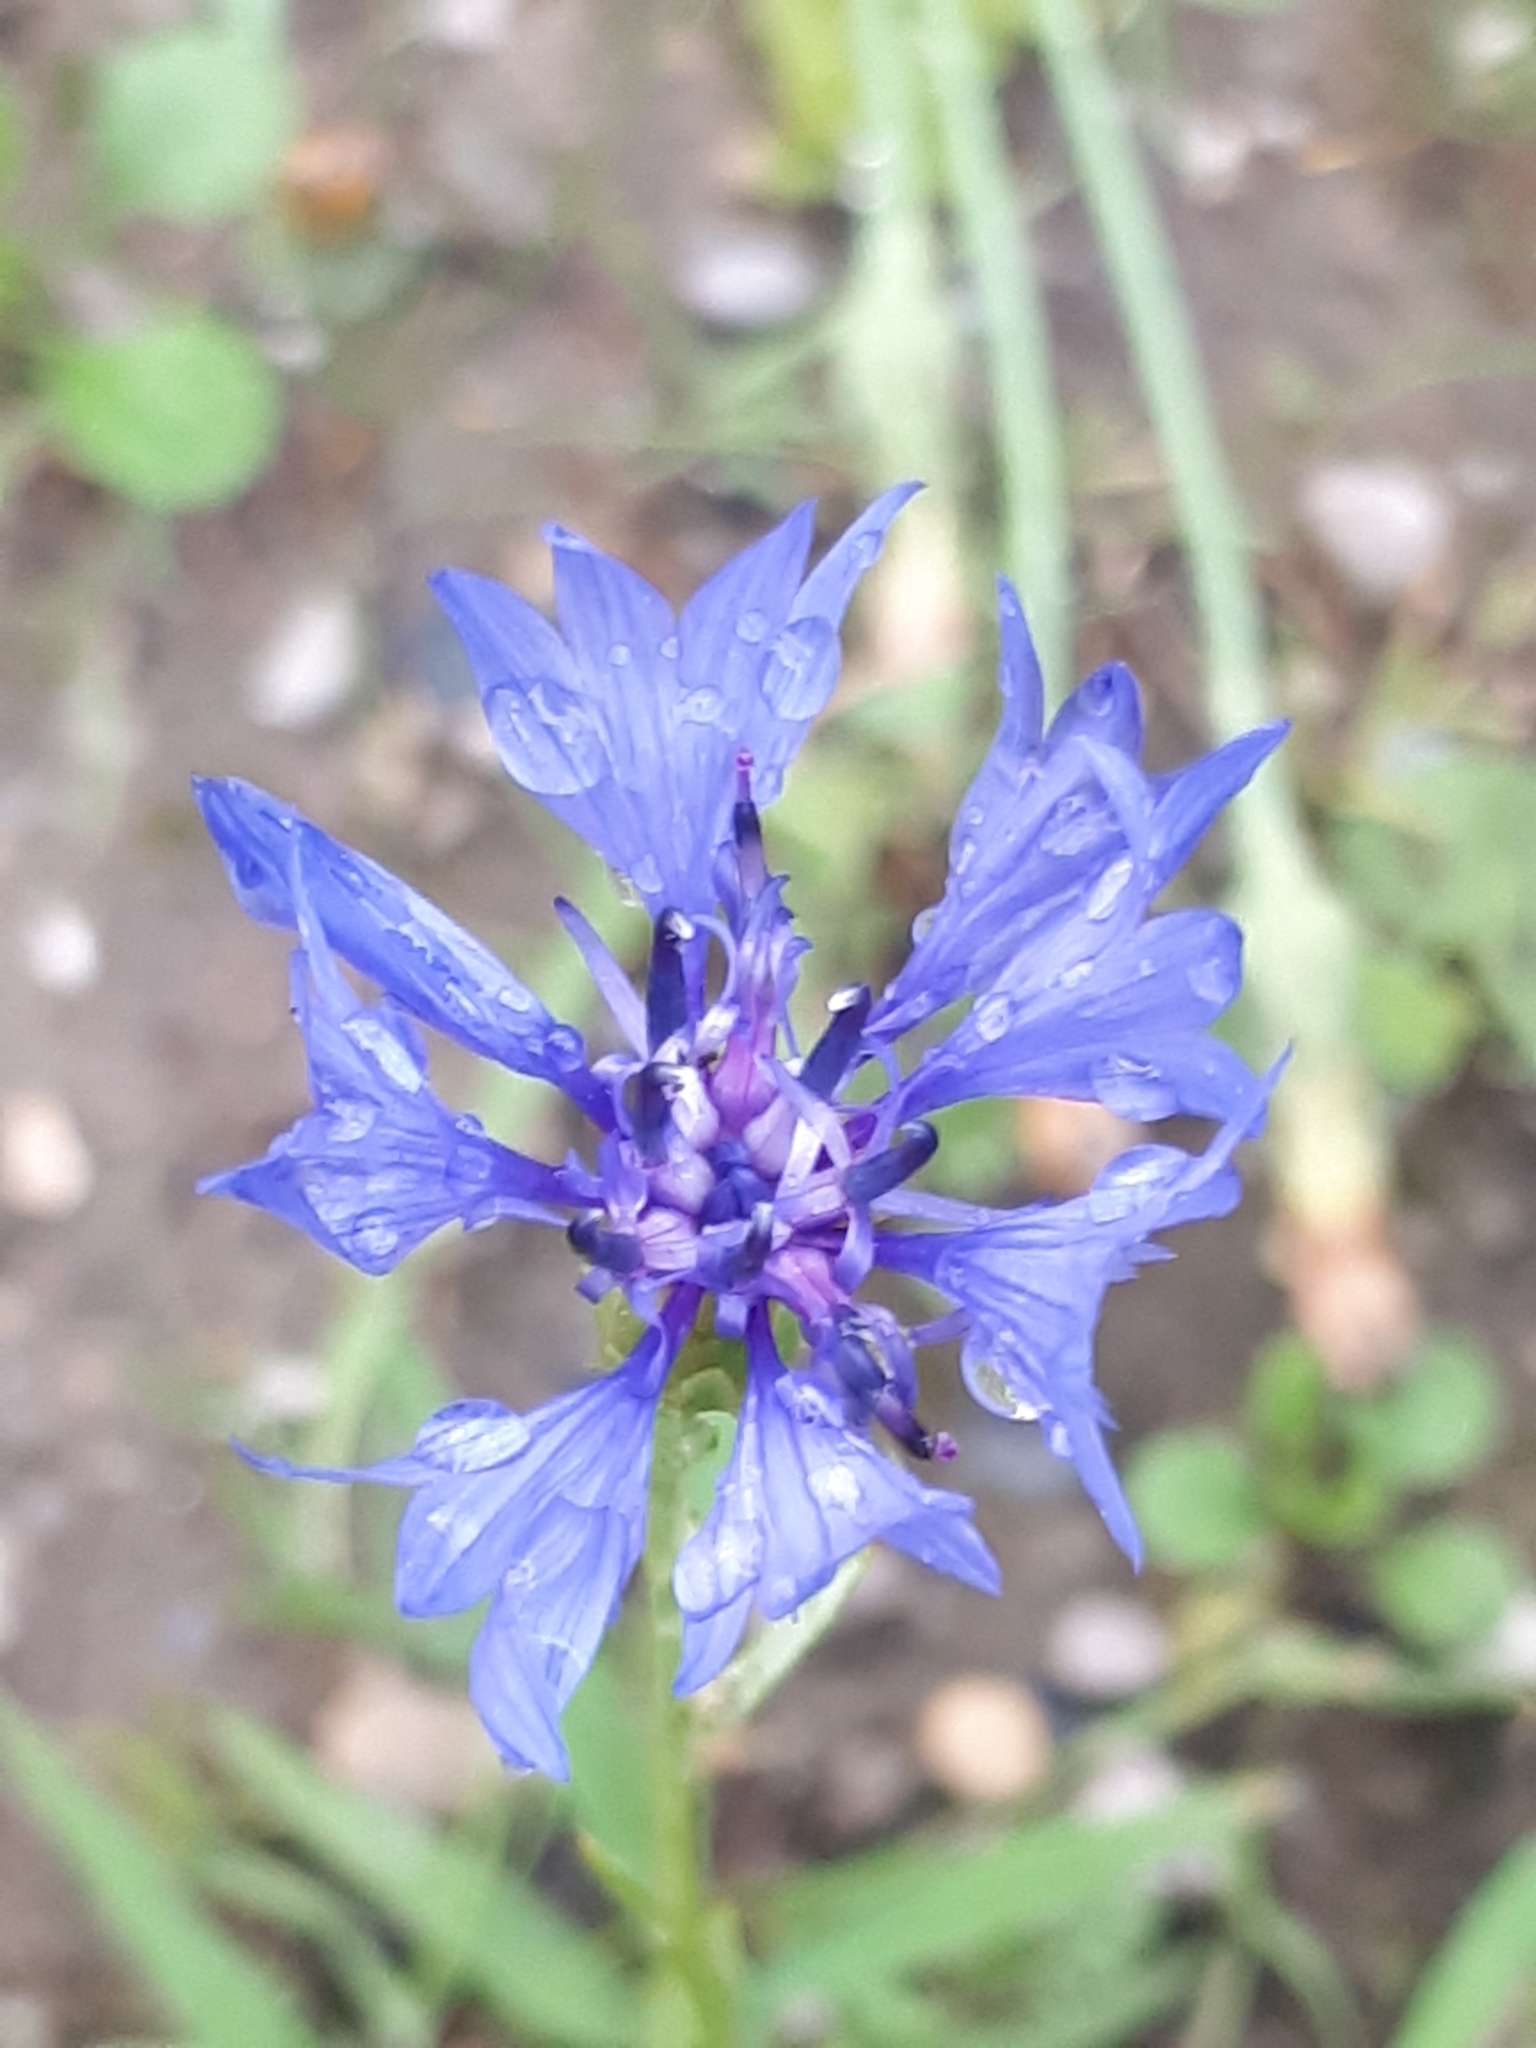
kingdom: Plantae
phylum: Tracheophyta
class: Magnoliopsida
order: Asterales
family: Asteraceae
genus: Centaurea
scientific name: Centaurea cyanus
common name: Cornflower
